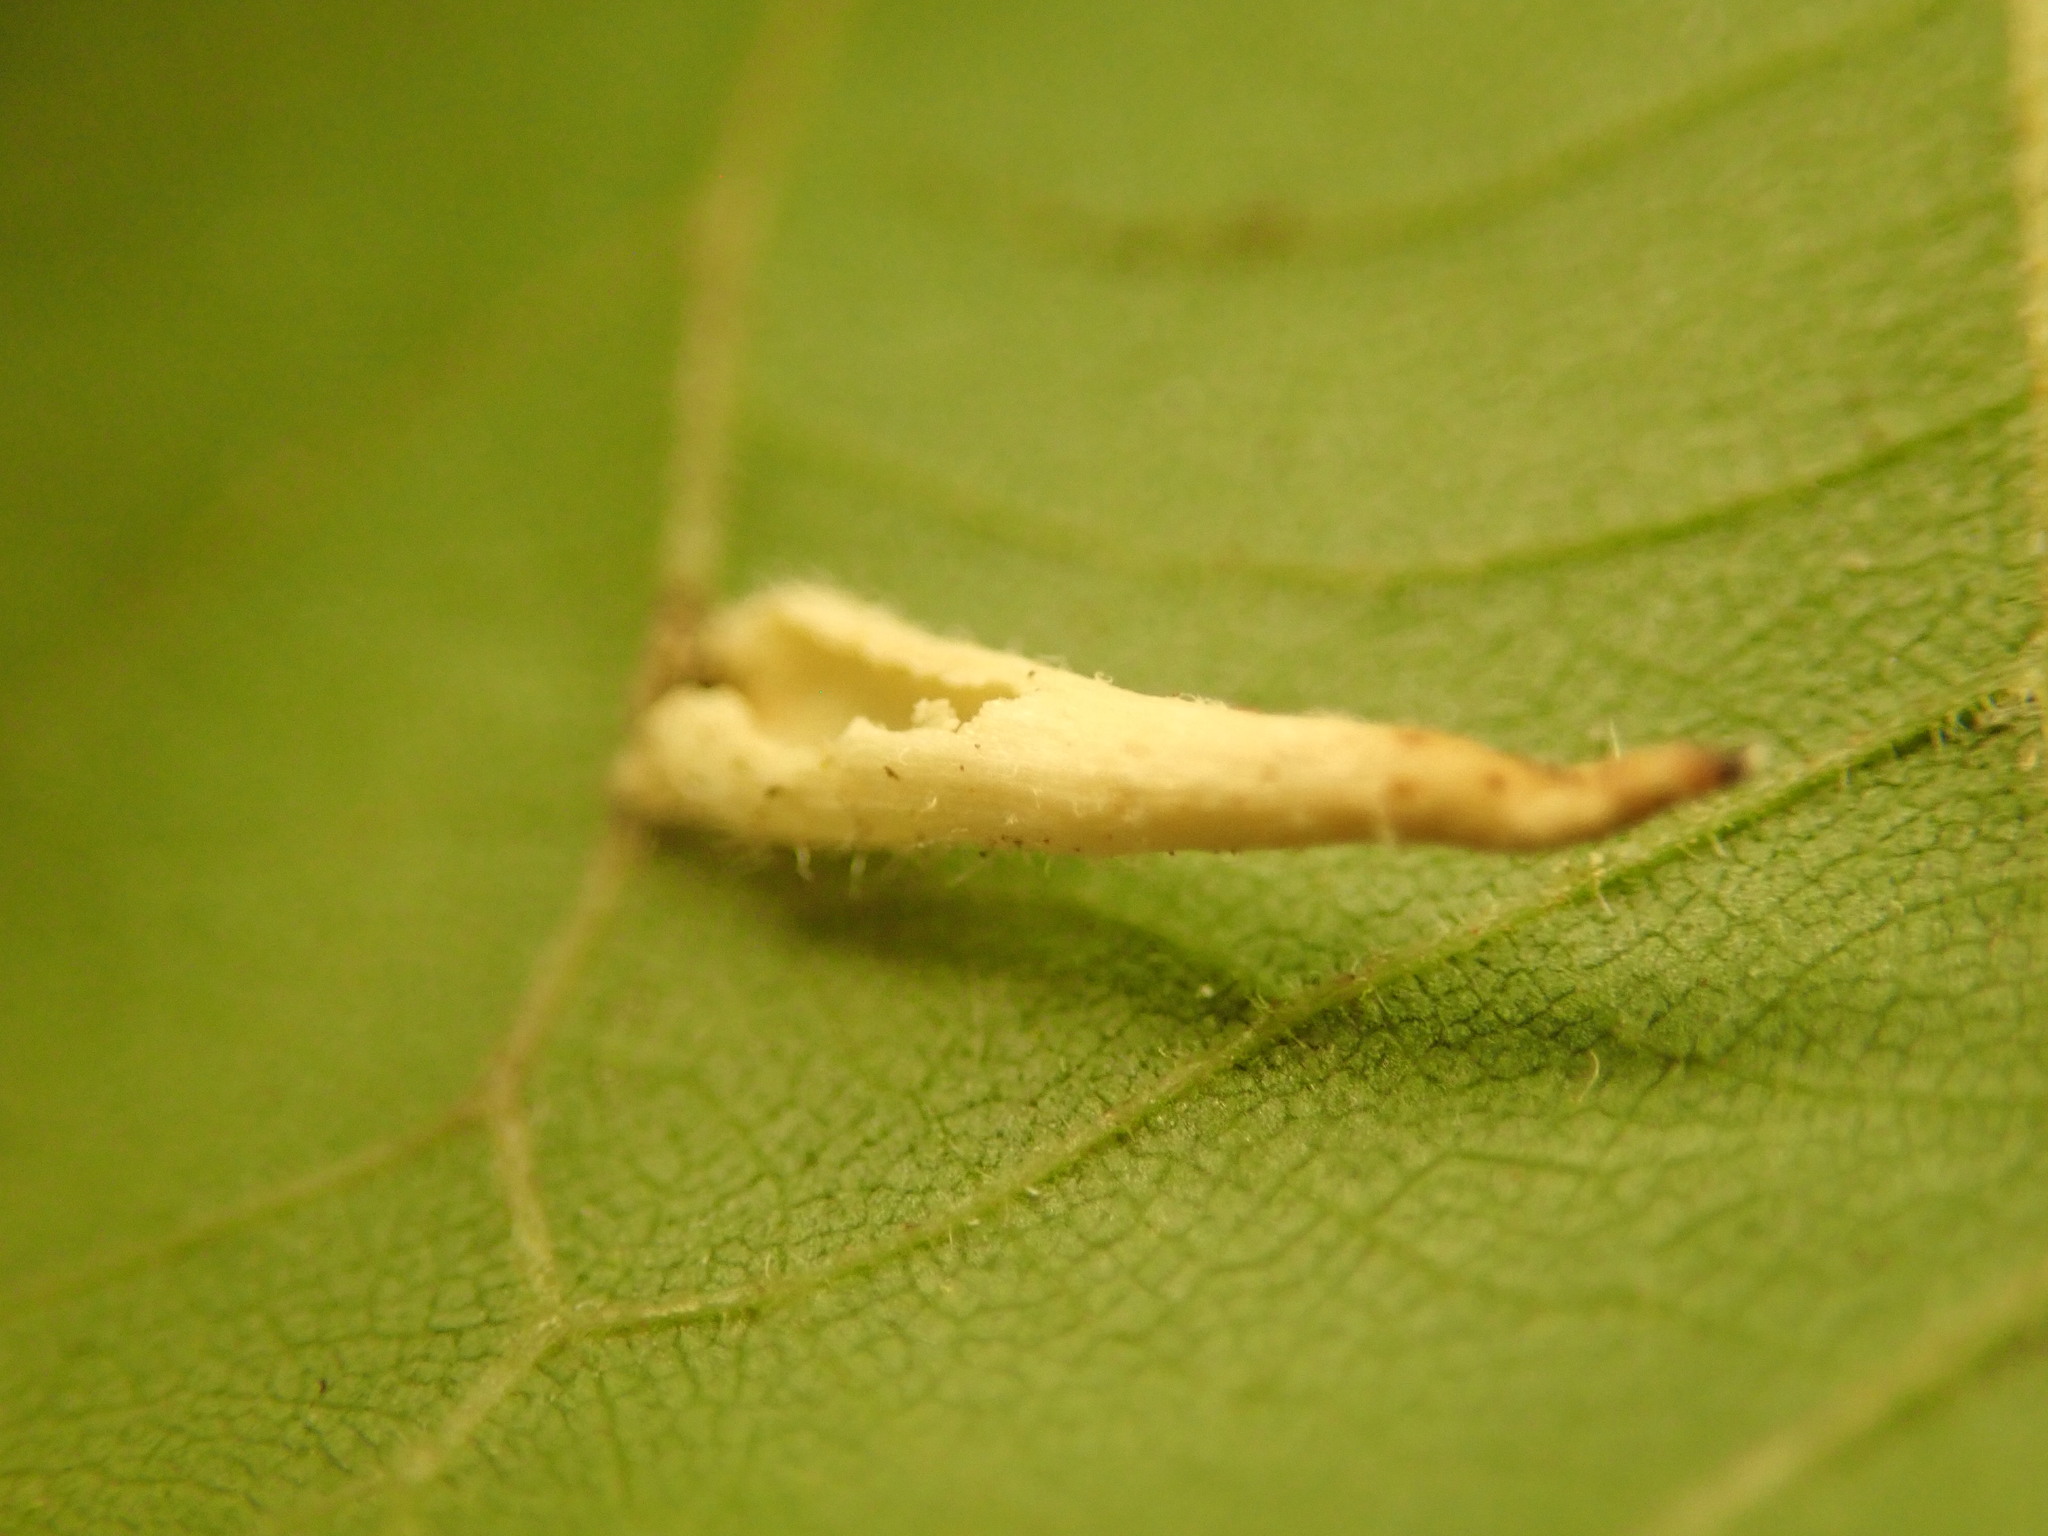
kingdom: Animalia
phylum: Arthropoda
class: Insecta
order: Diptera
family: Cecidomyiidae
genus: Caryomyia
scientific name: Caryomyia
